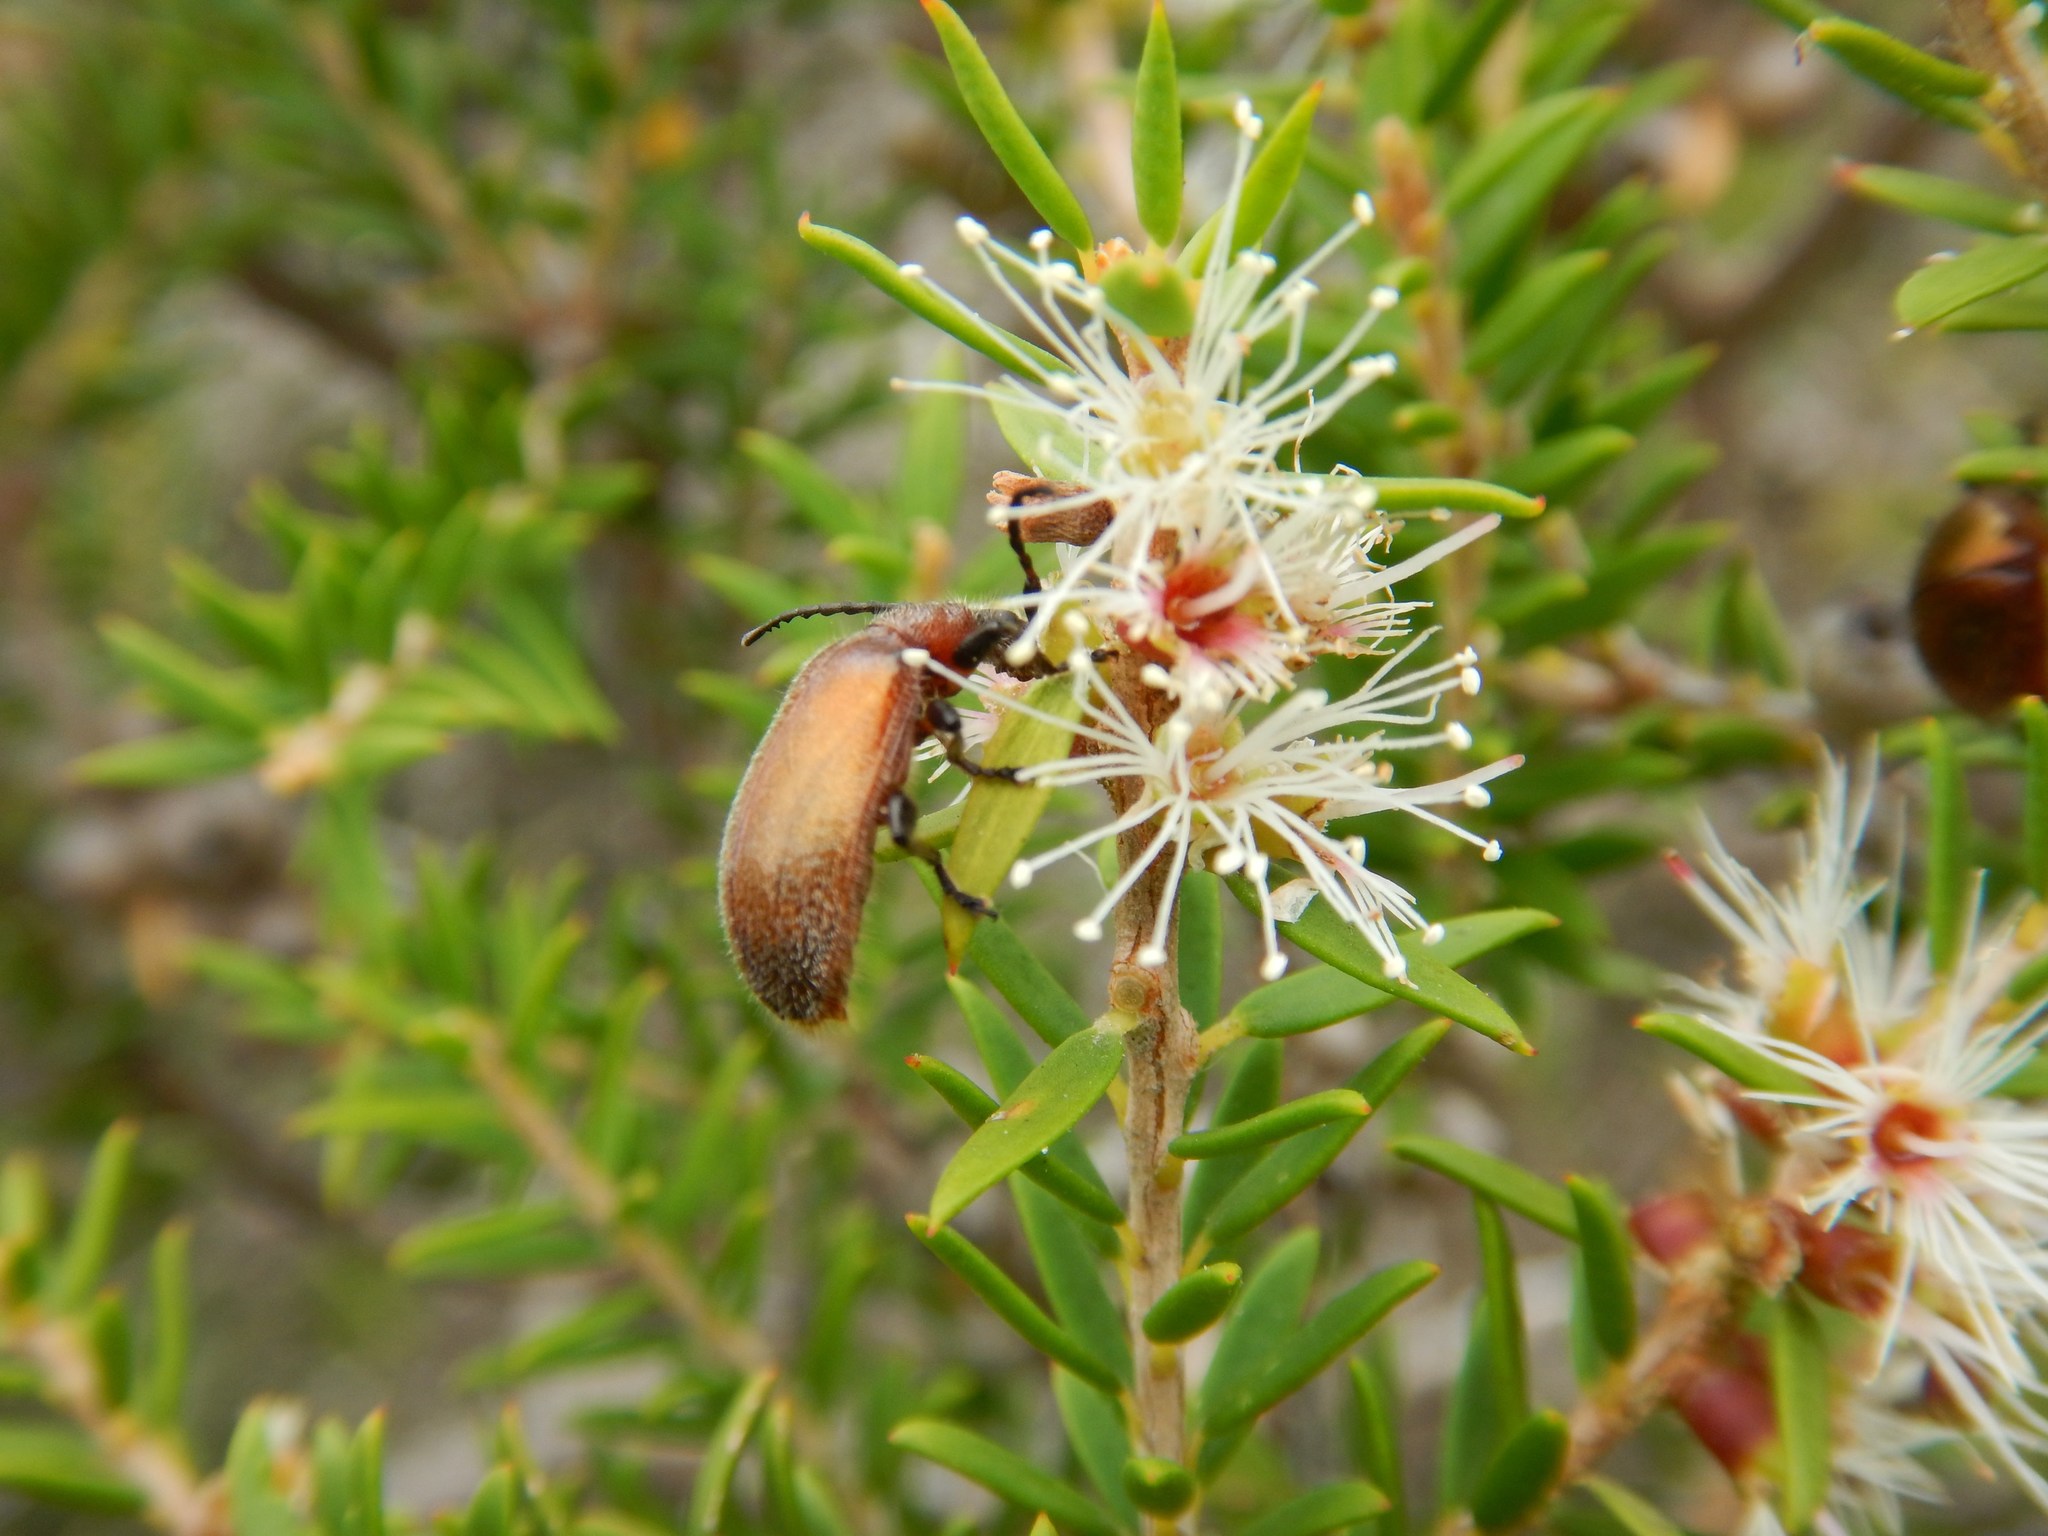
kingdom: Animalia
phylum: Arthropoda
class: Insecta
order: Coleoptera
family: Tenebrionidae
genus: Ecnolagria
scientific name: Ecnolagria
